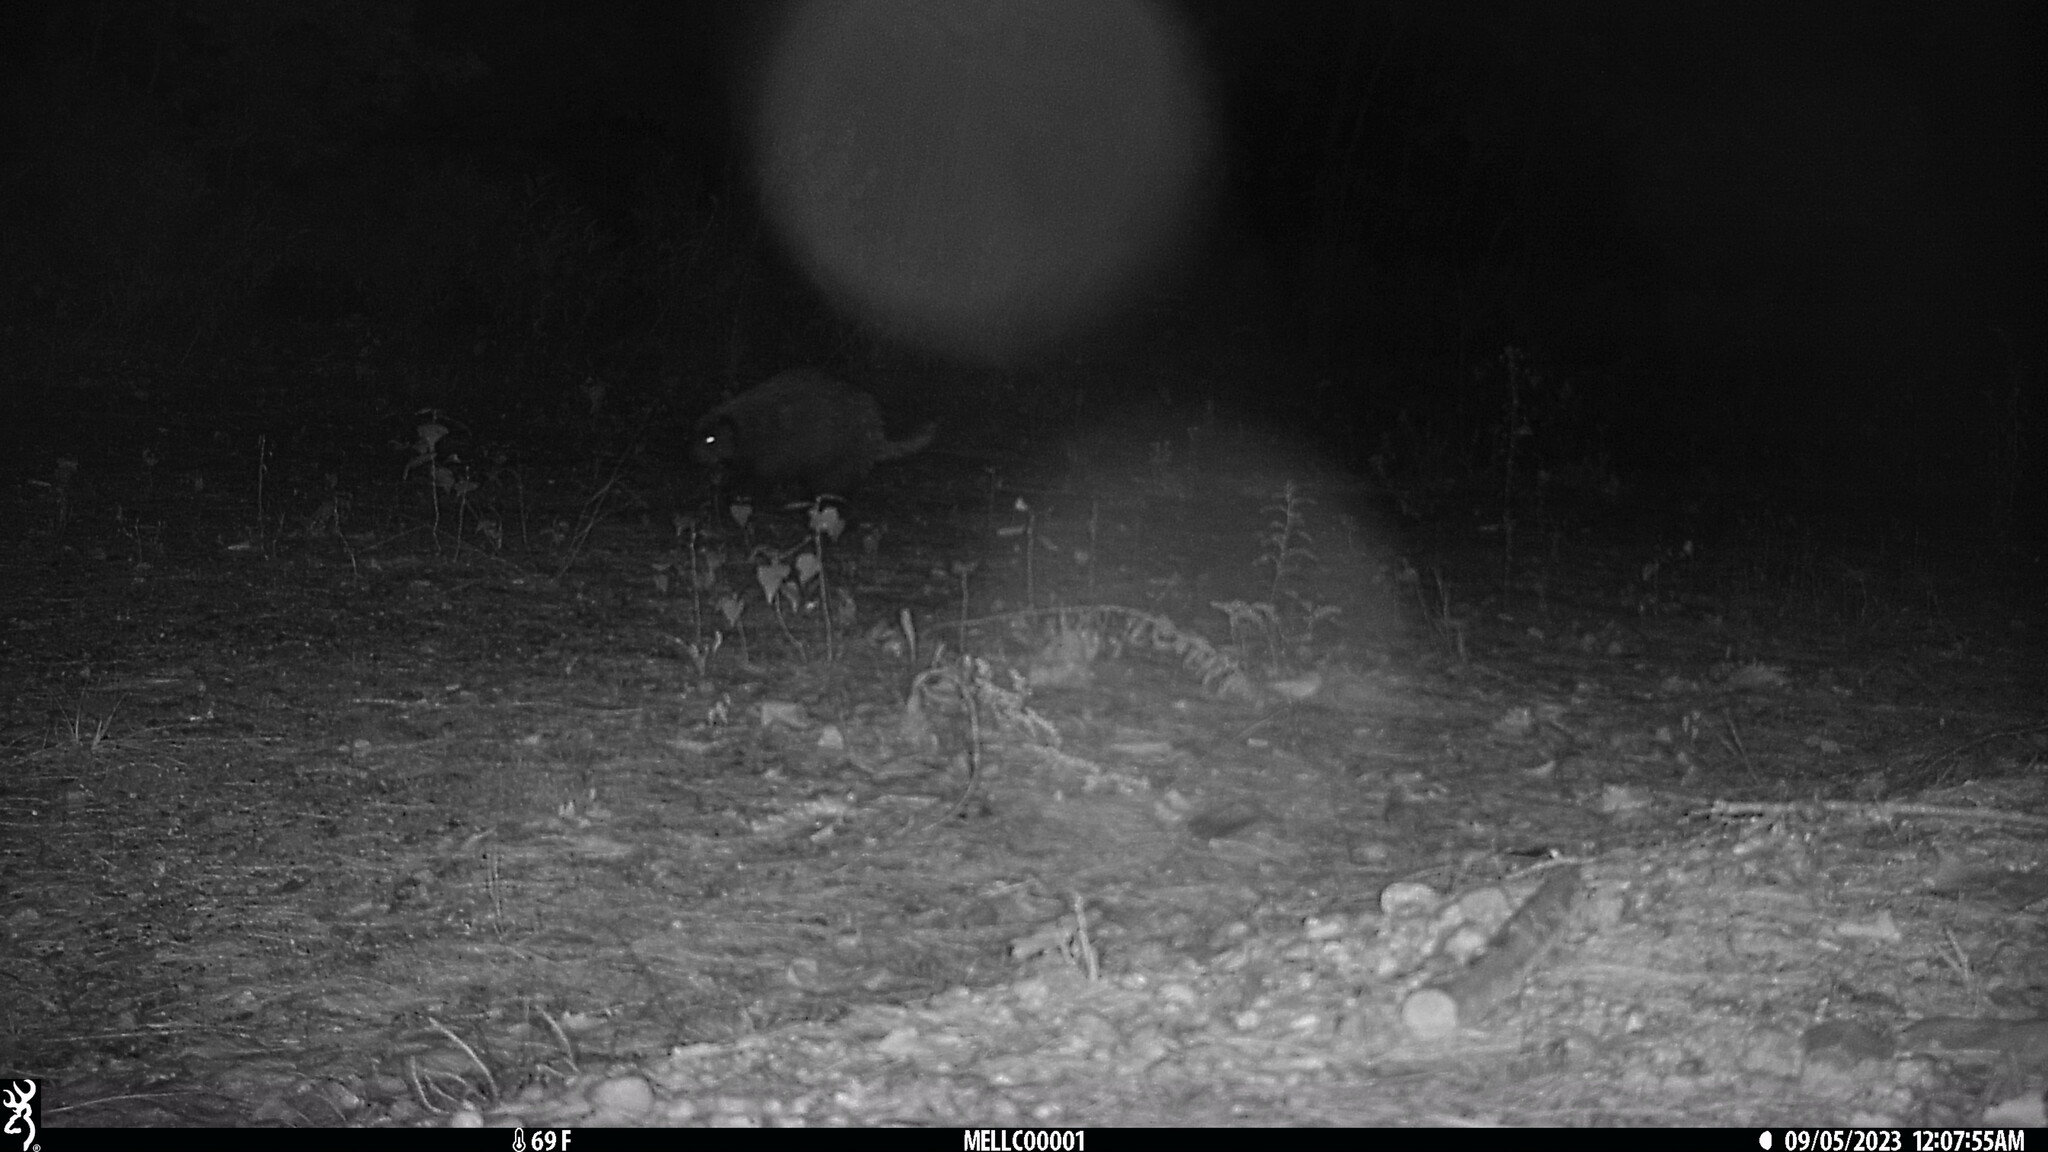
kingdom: Animalia
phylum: Chordata
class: Mammalia
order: Rodentia
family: Erethizontidae
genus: Erethizon
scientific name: Erethizon dorsatus
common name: North american porcupine
